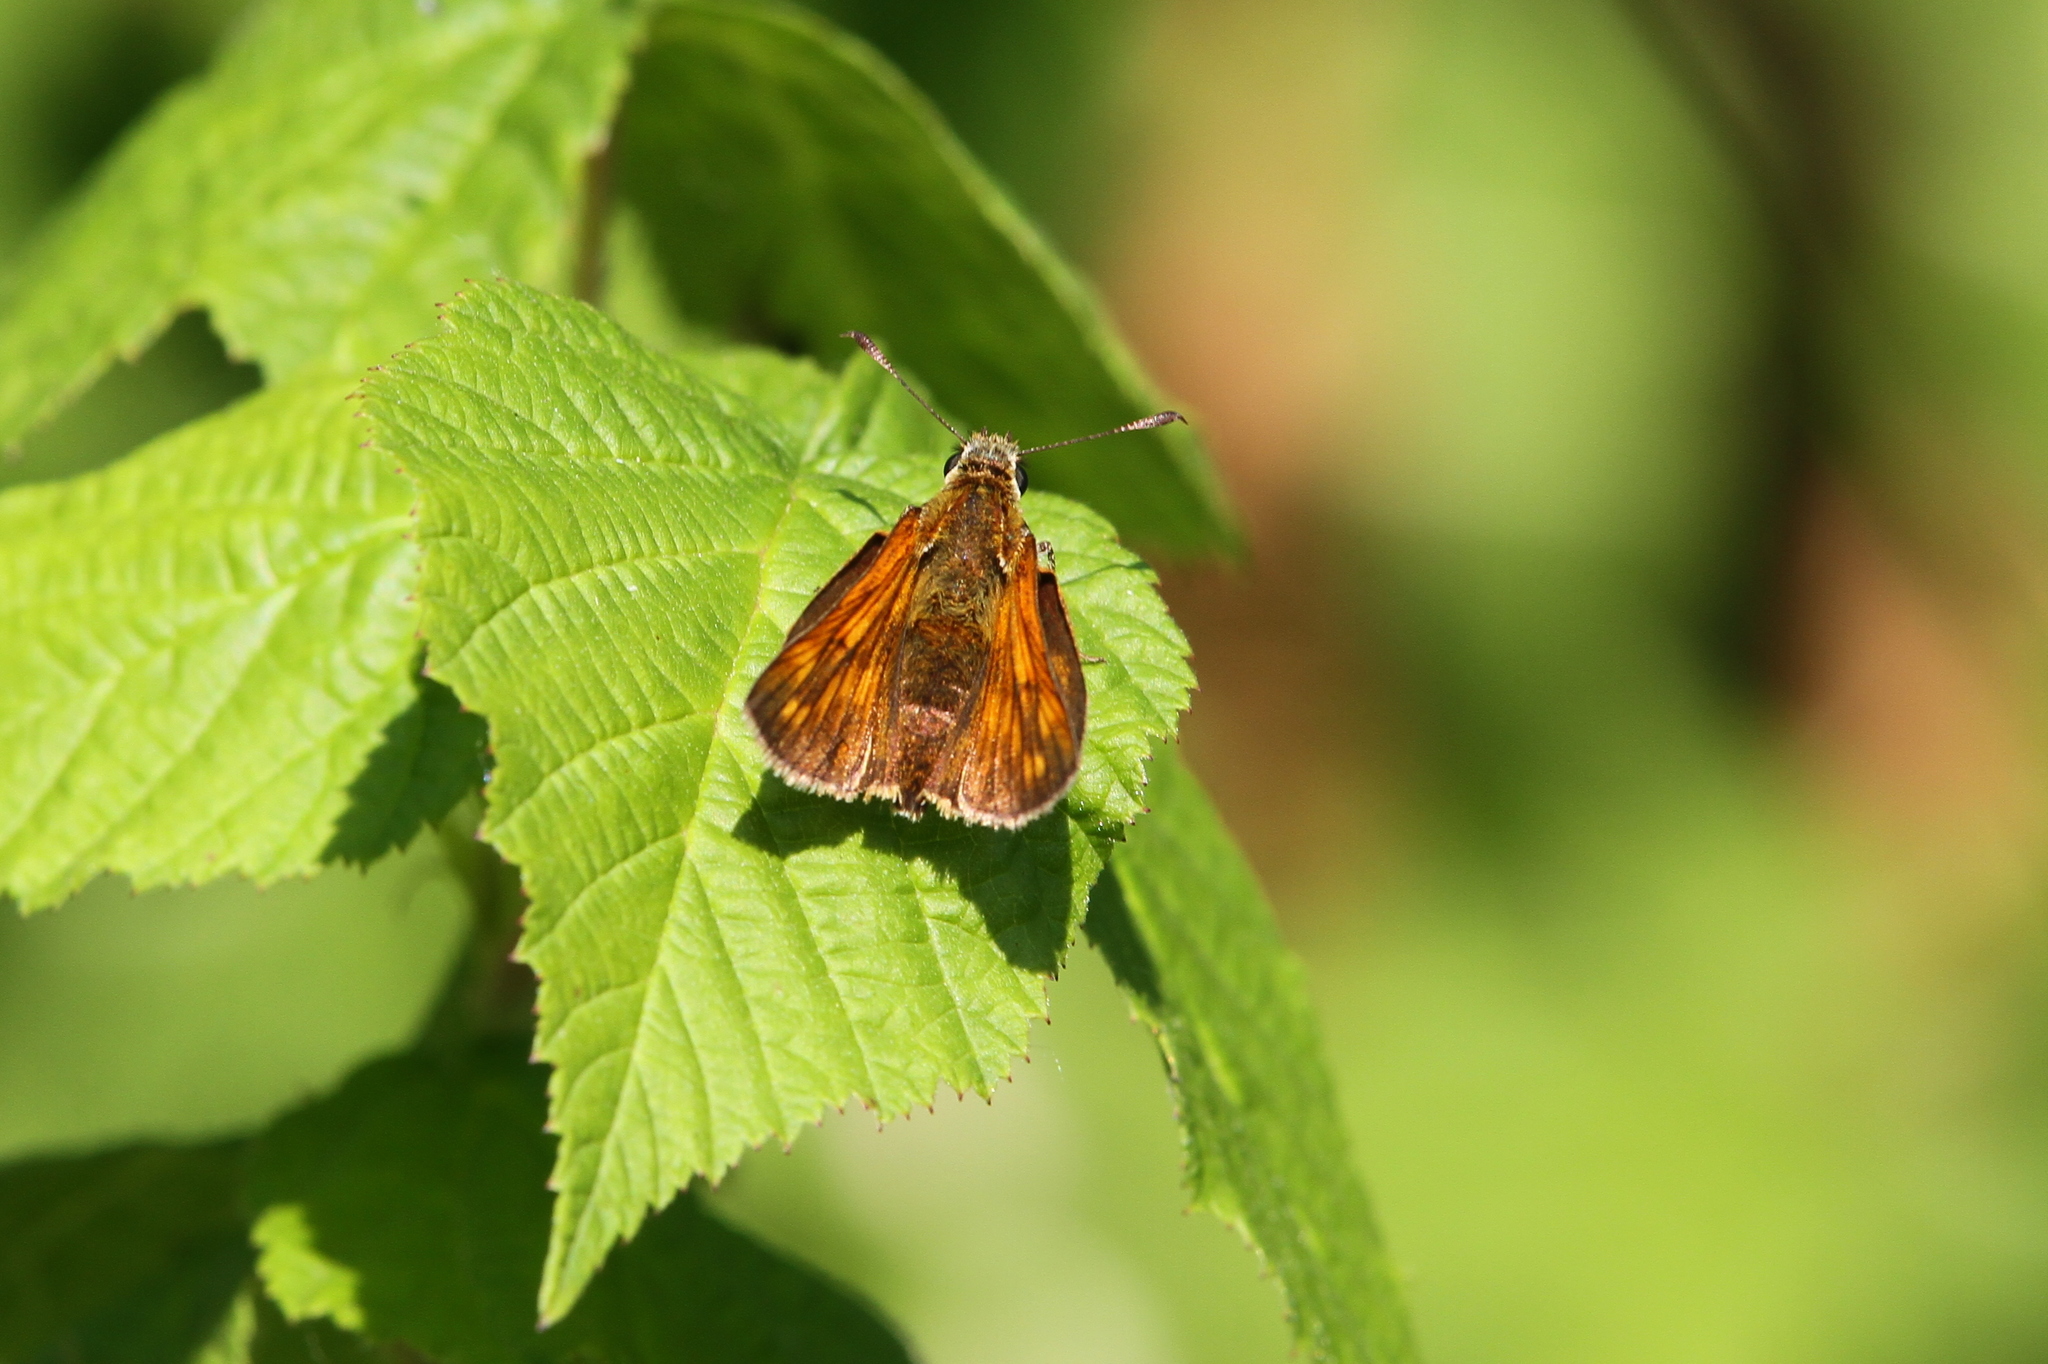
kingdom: Animalia
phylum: Arthropoda
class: Insecta
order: Lepidoptera
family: Hesperiidae
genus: Ochlodes
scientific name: Ochlodes venata
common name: Large skipper
